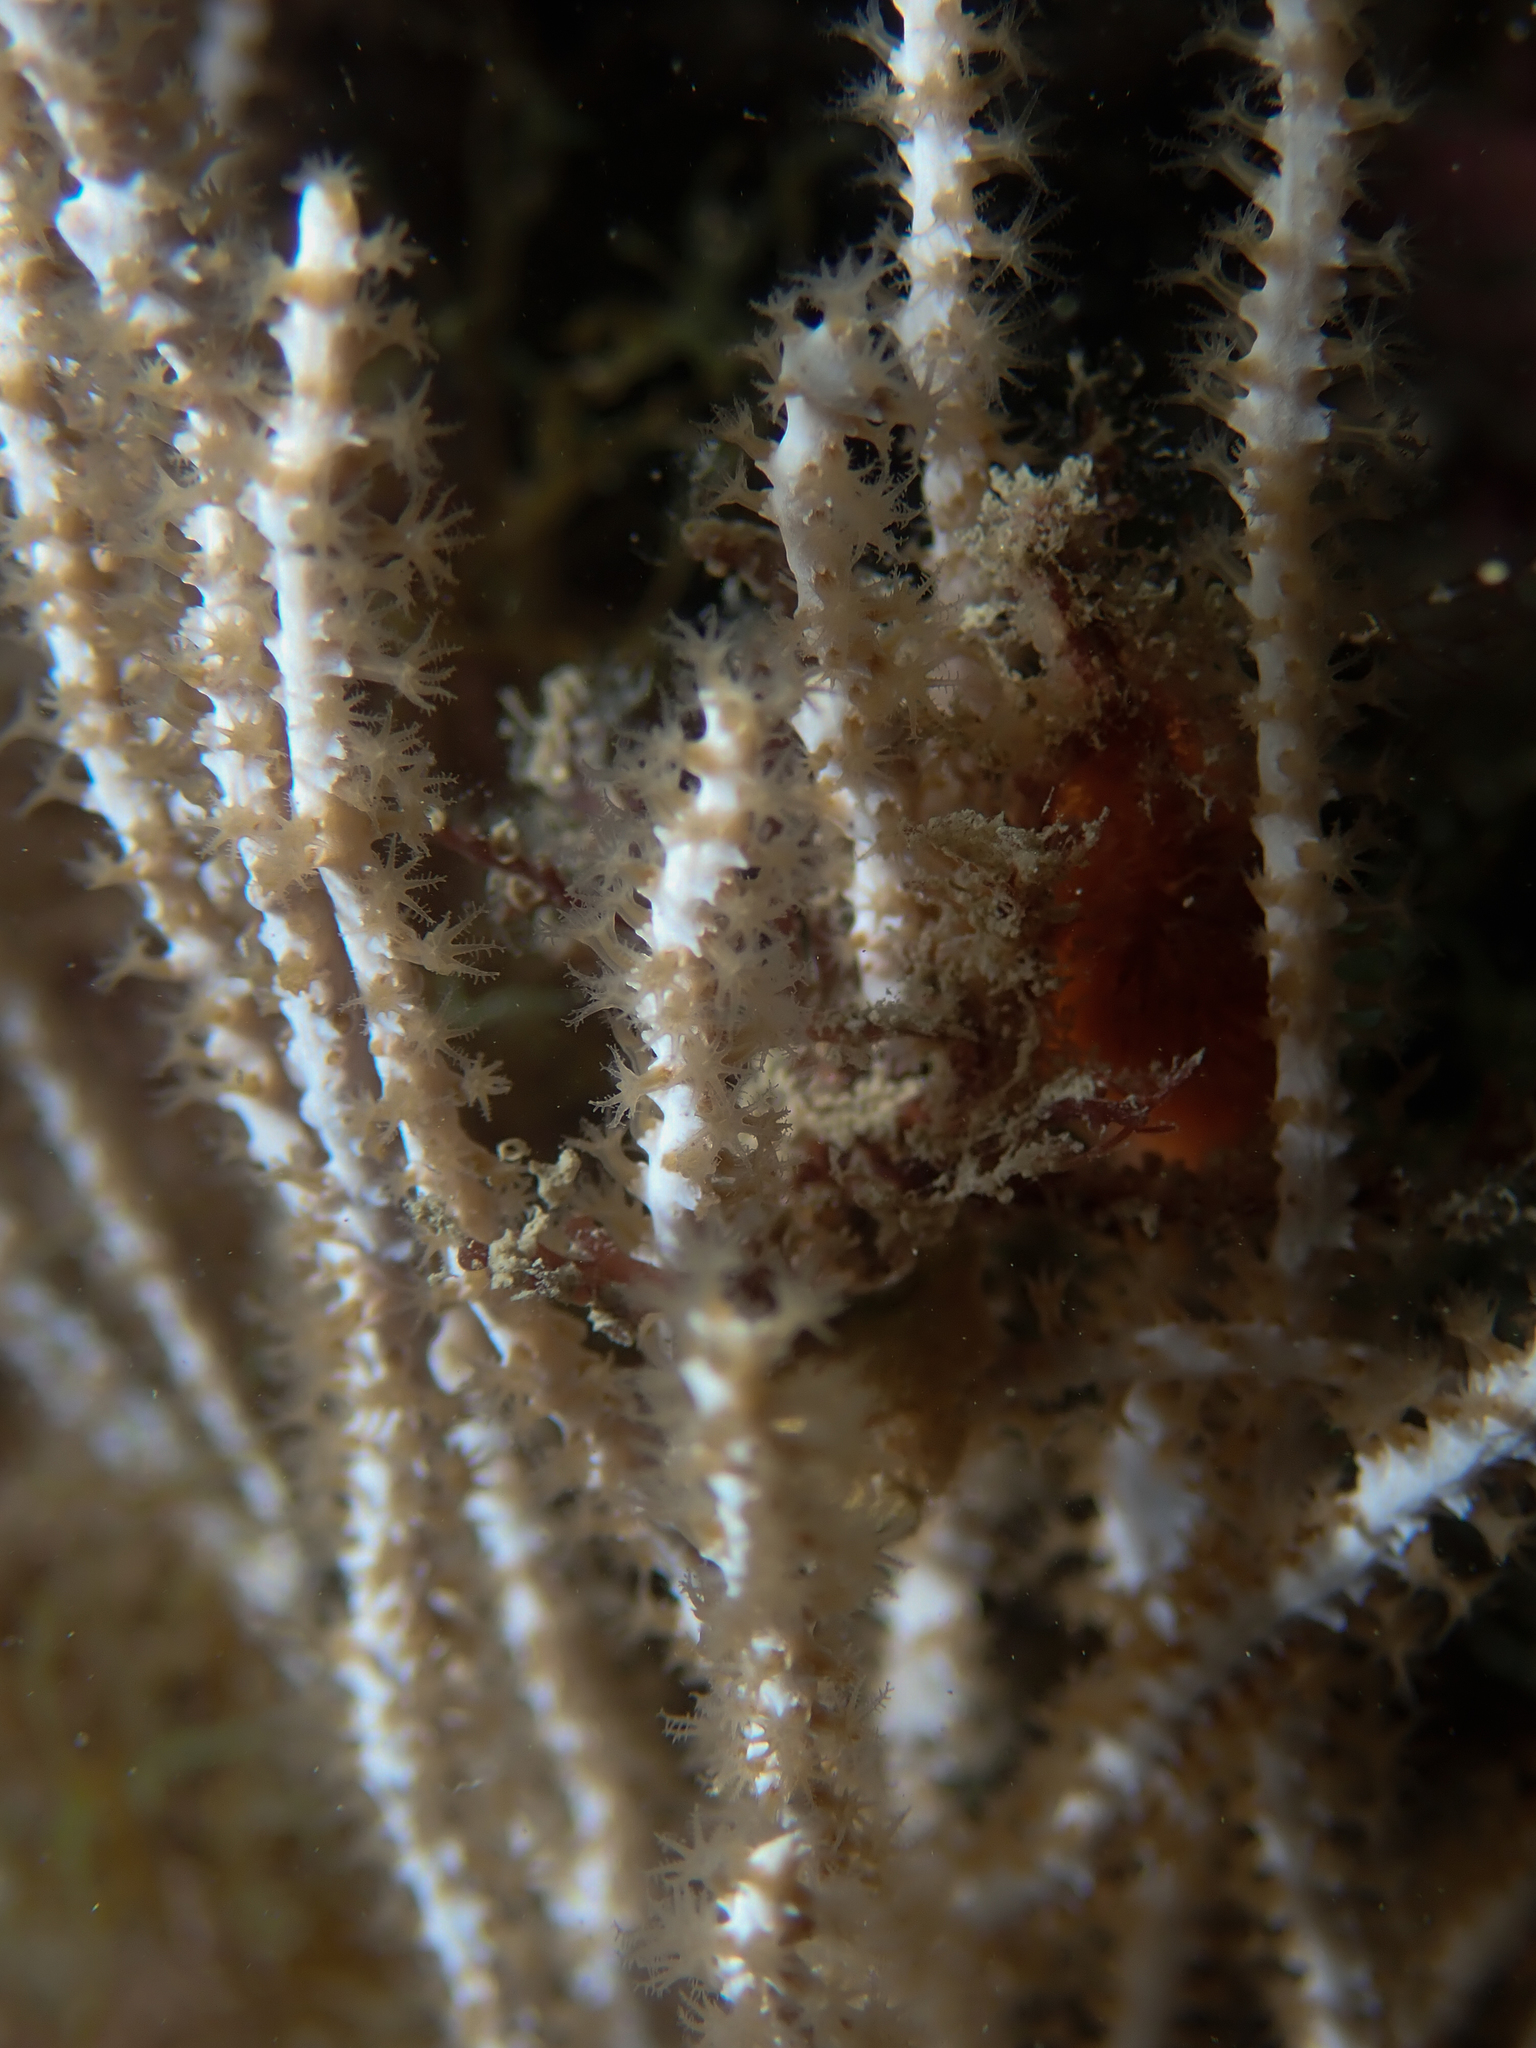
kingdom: Animalia
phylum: Cnidaria
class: Anthozoa
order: Malacalcyonacea
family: Eunicellidae
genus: Eunicella
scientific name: Eunicella singularis
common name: White horny coral
